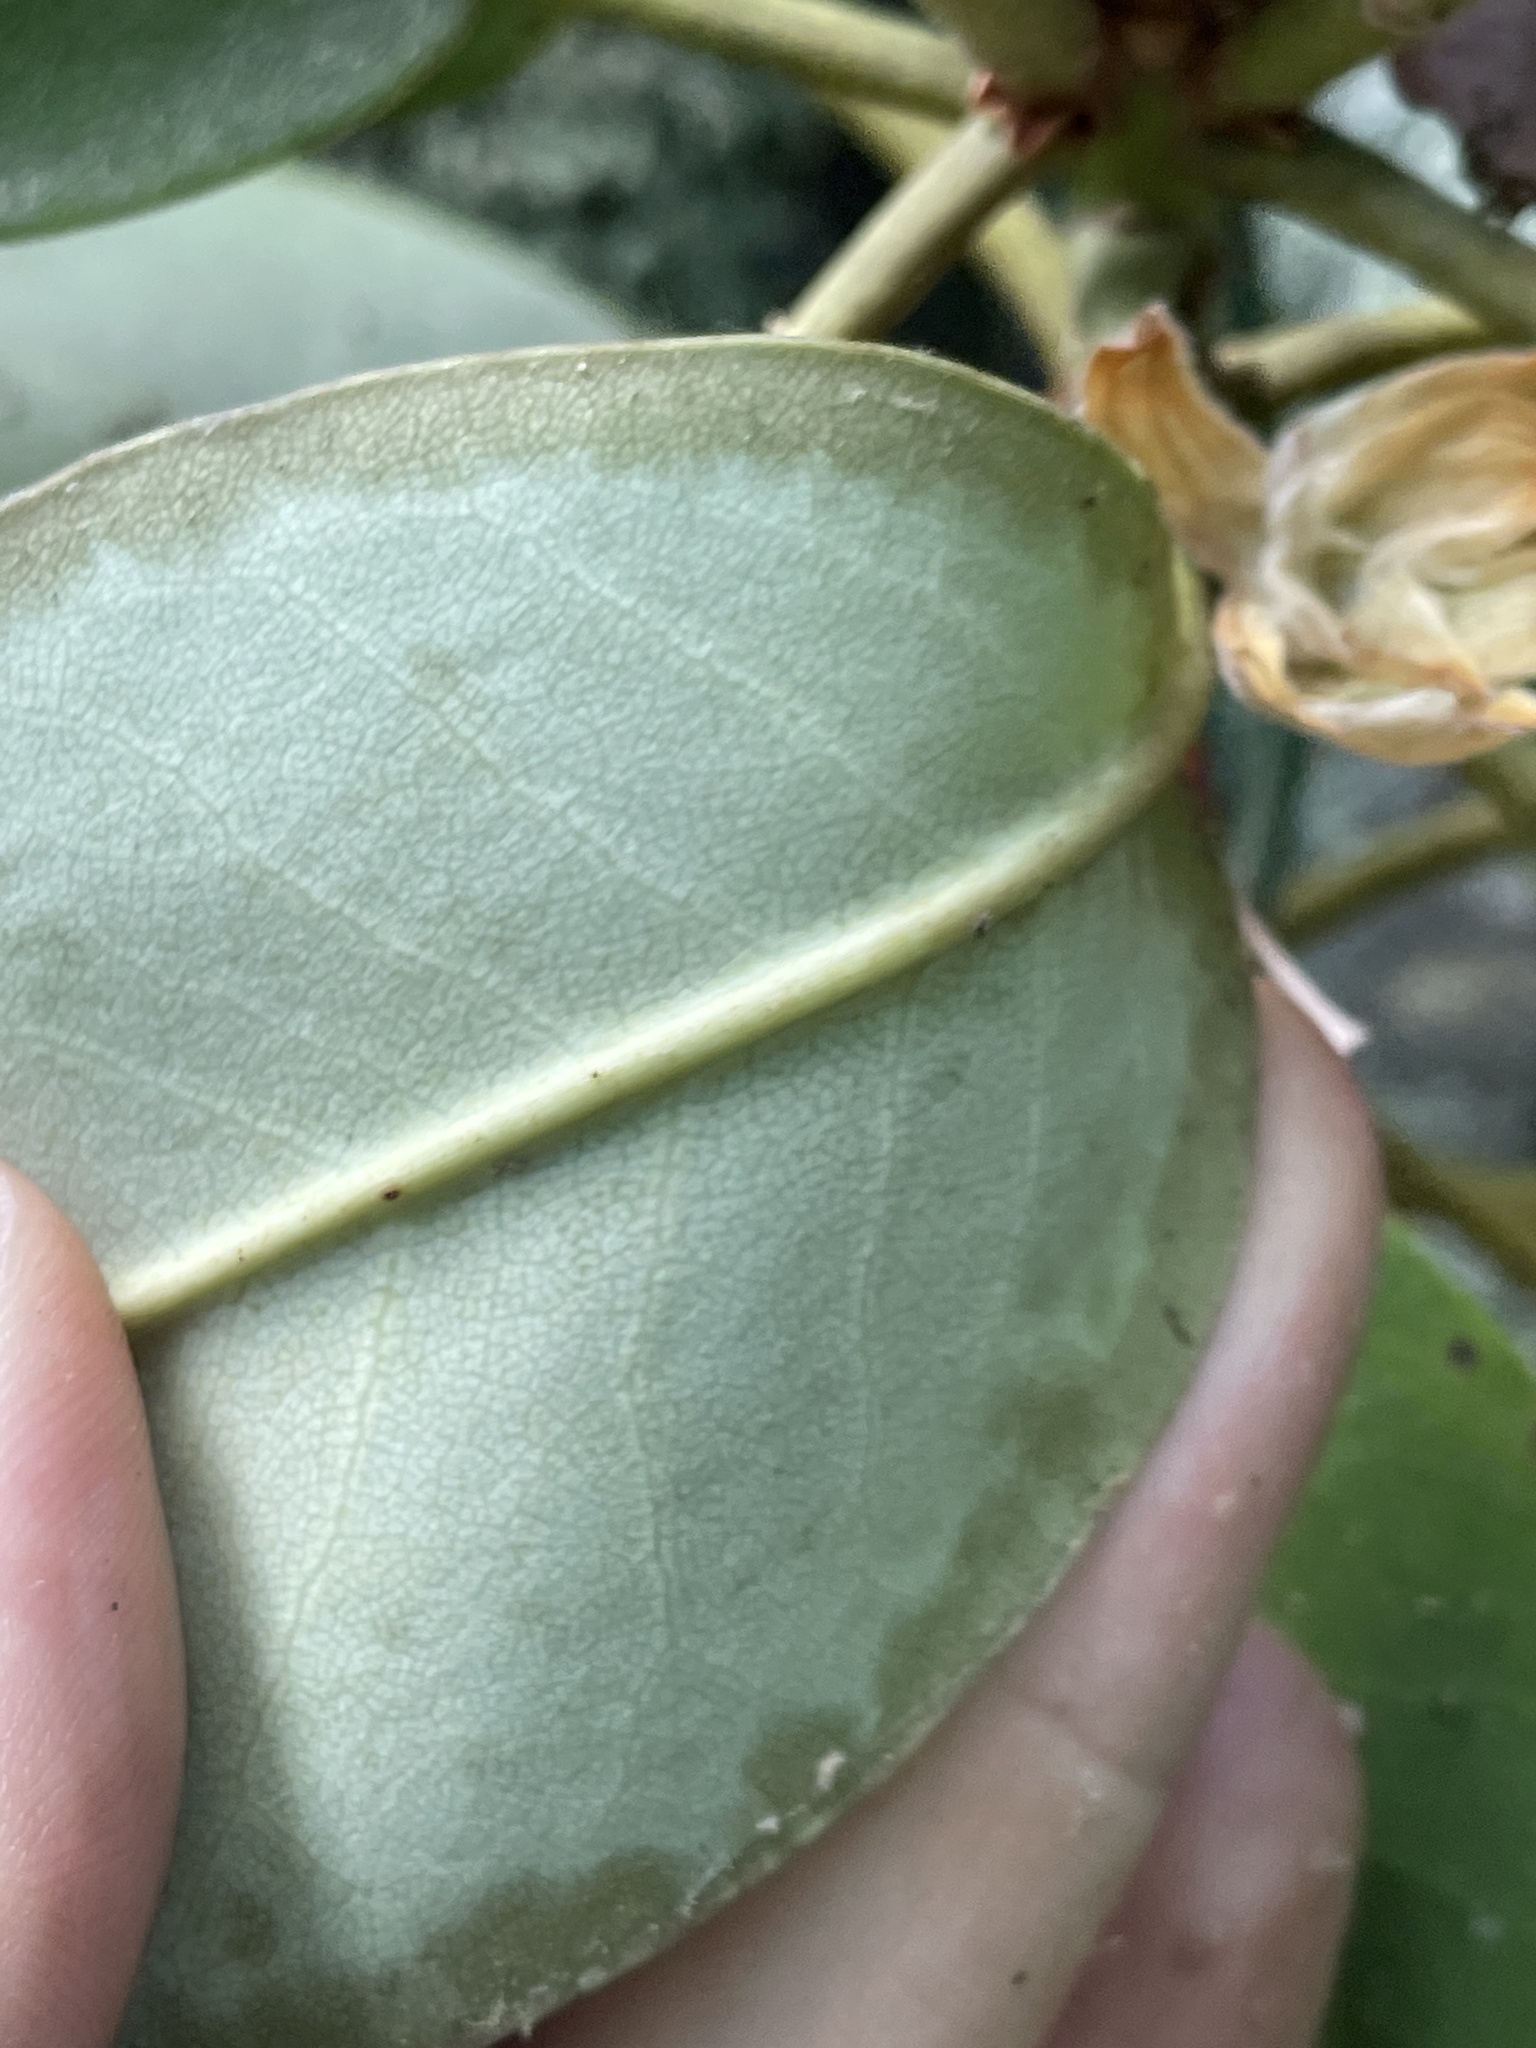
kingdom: Plantae
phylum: Tracheophyta
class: Magnoliopsida
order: Ericales
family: Ericaceae
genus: Rhododendron
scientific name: Rhododendron catawbiense
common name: Catawba rhododendron
